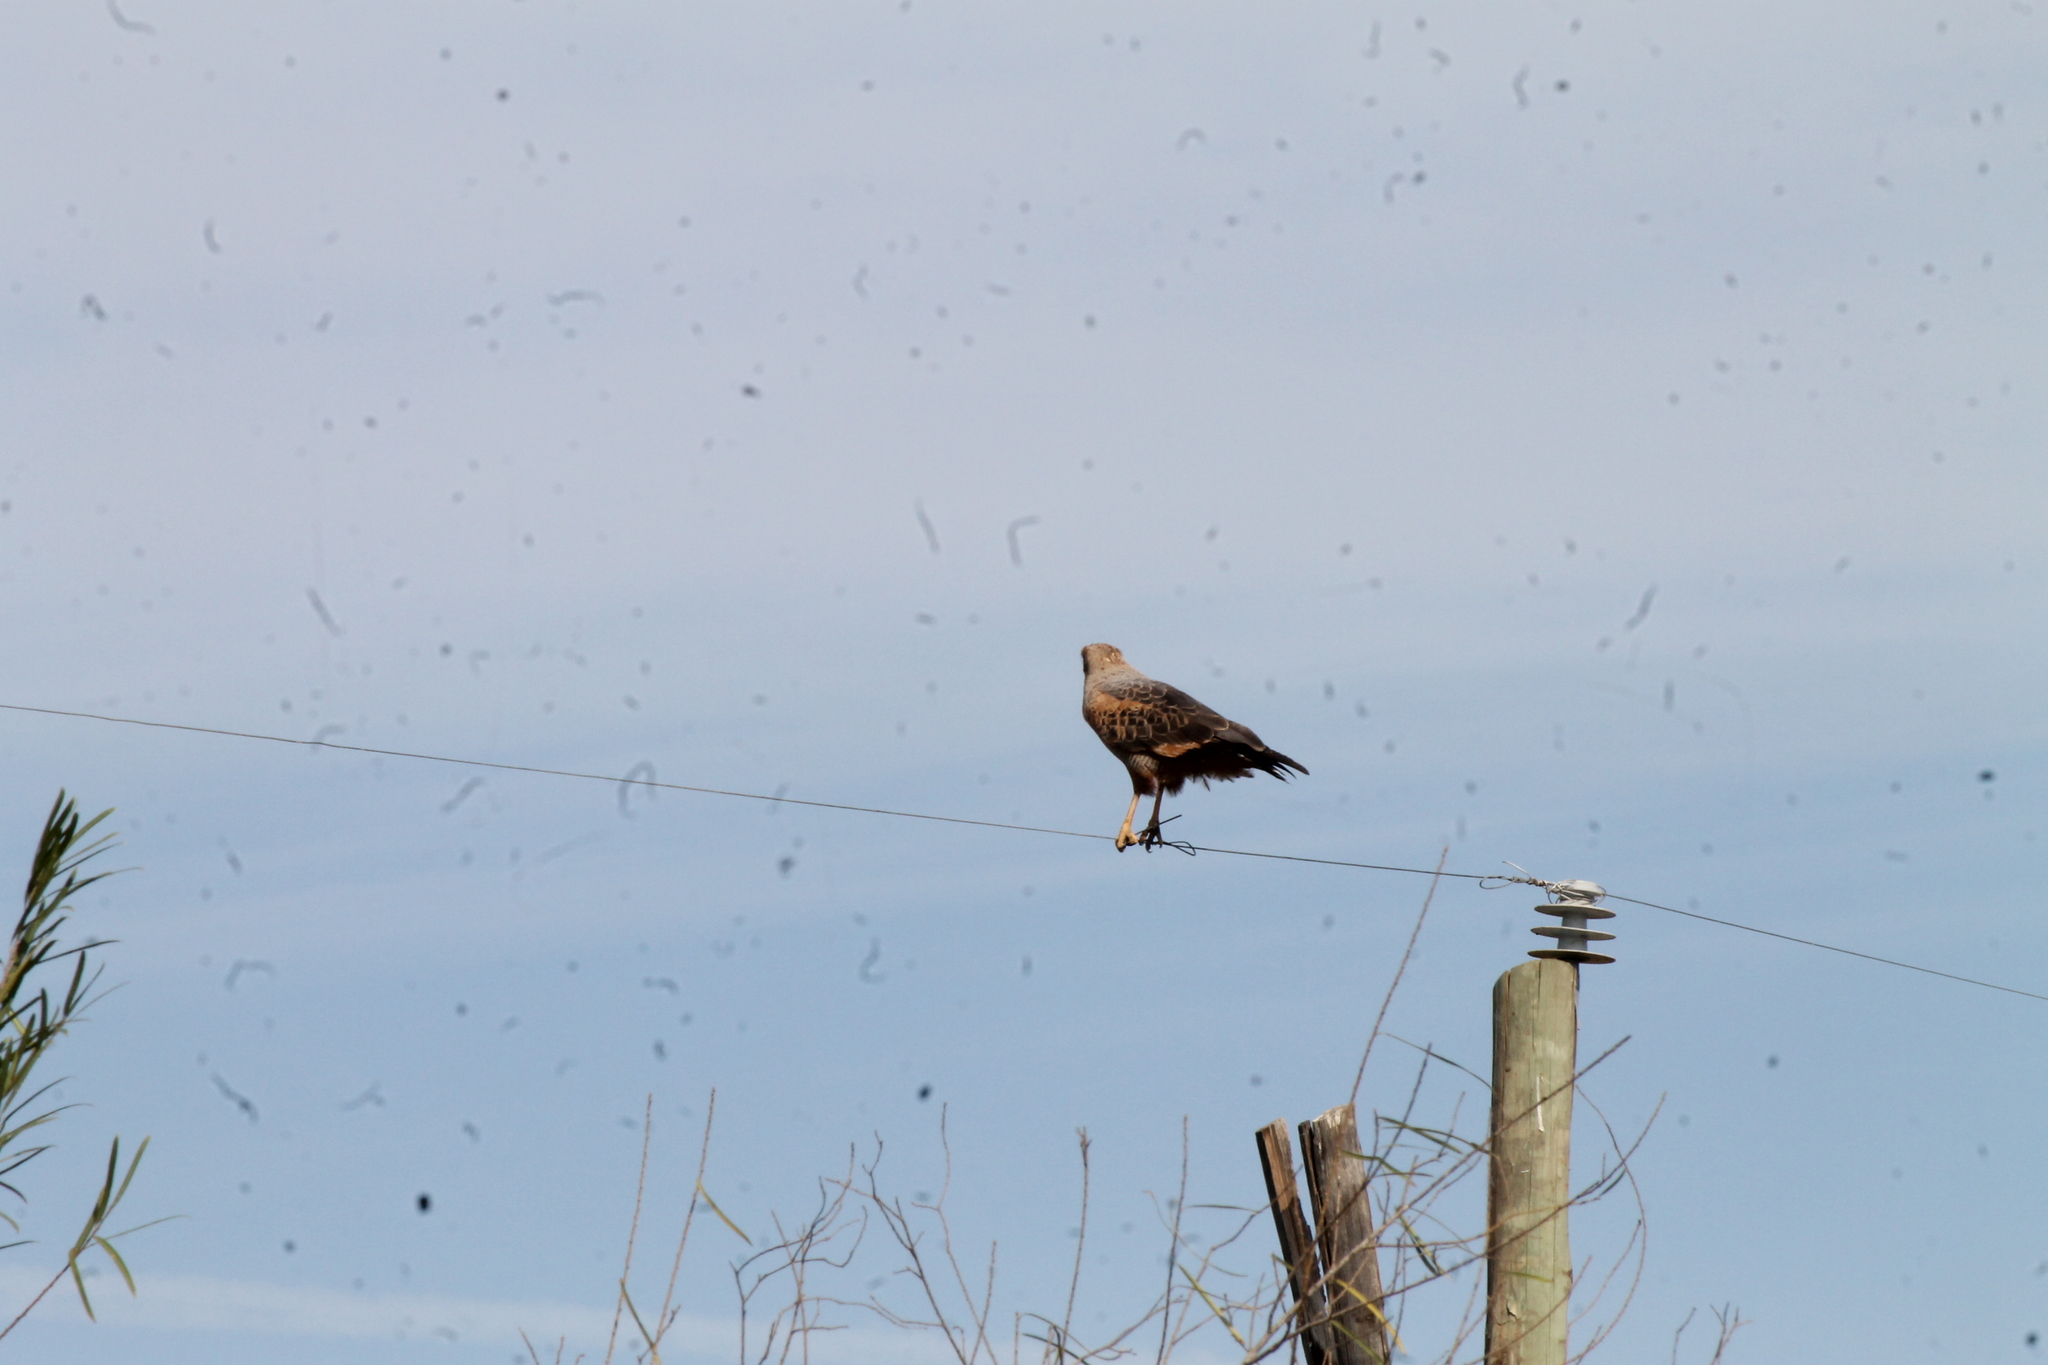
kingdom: Animalia
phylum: Chordata
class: Aves
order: Accipitriformes
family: Accipitridae
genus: Buteogallus
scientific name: Buteogallus meridionalis
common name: Savanna hawk
